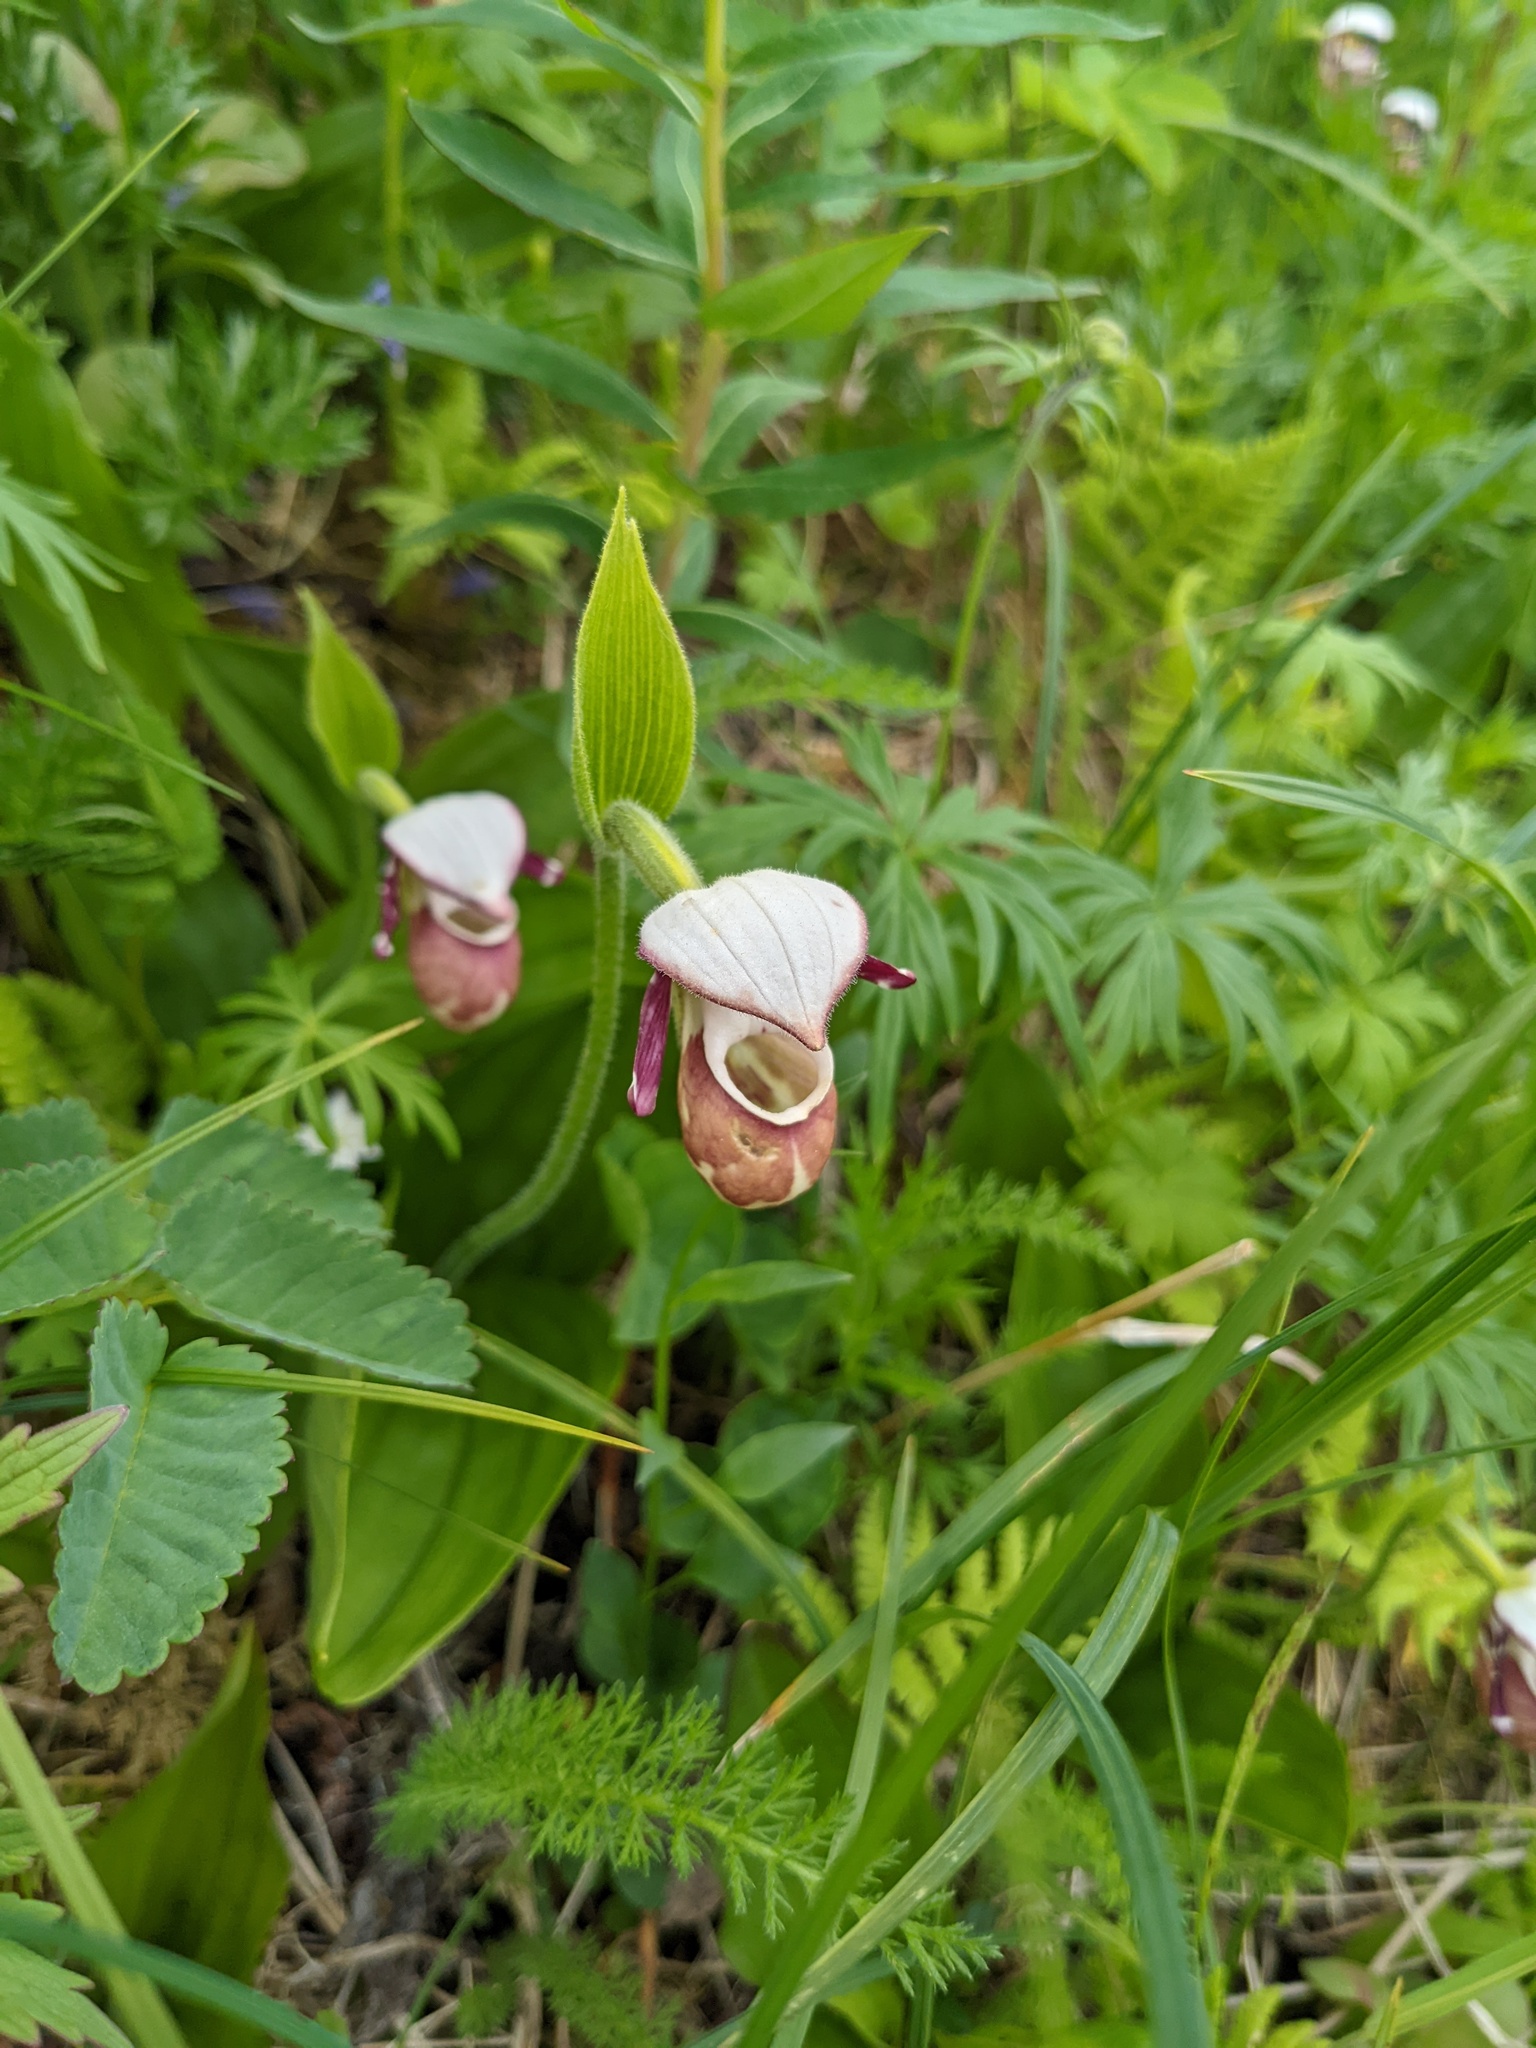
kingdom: Plantae
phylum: Tracheophyta
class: Liliopsida
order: Asparagales
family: Orchidaceae
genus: Cypripedium
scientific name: Cypripedium guttatum
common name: Pink lady slipper
